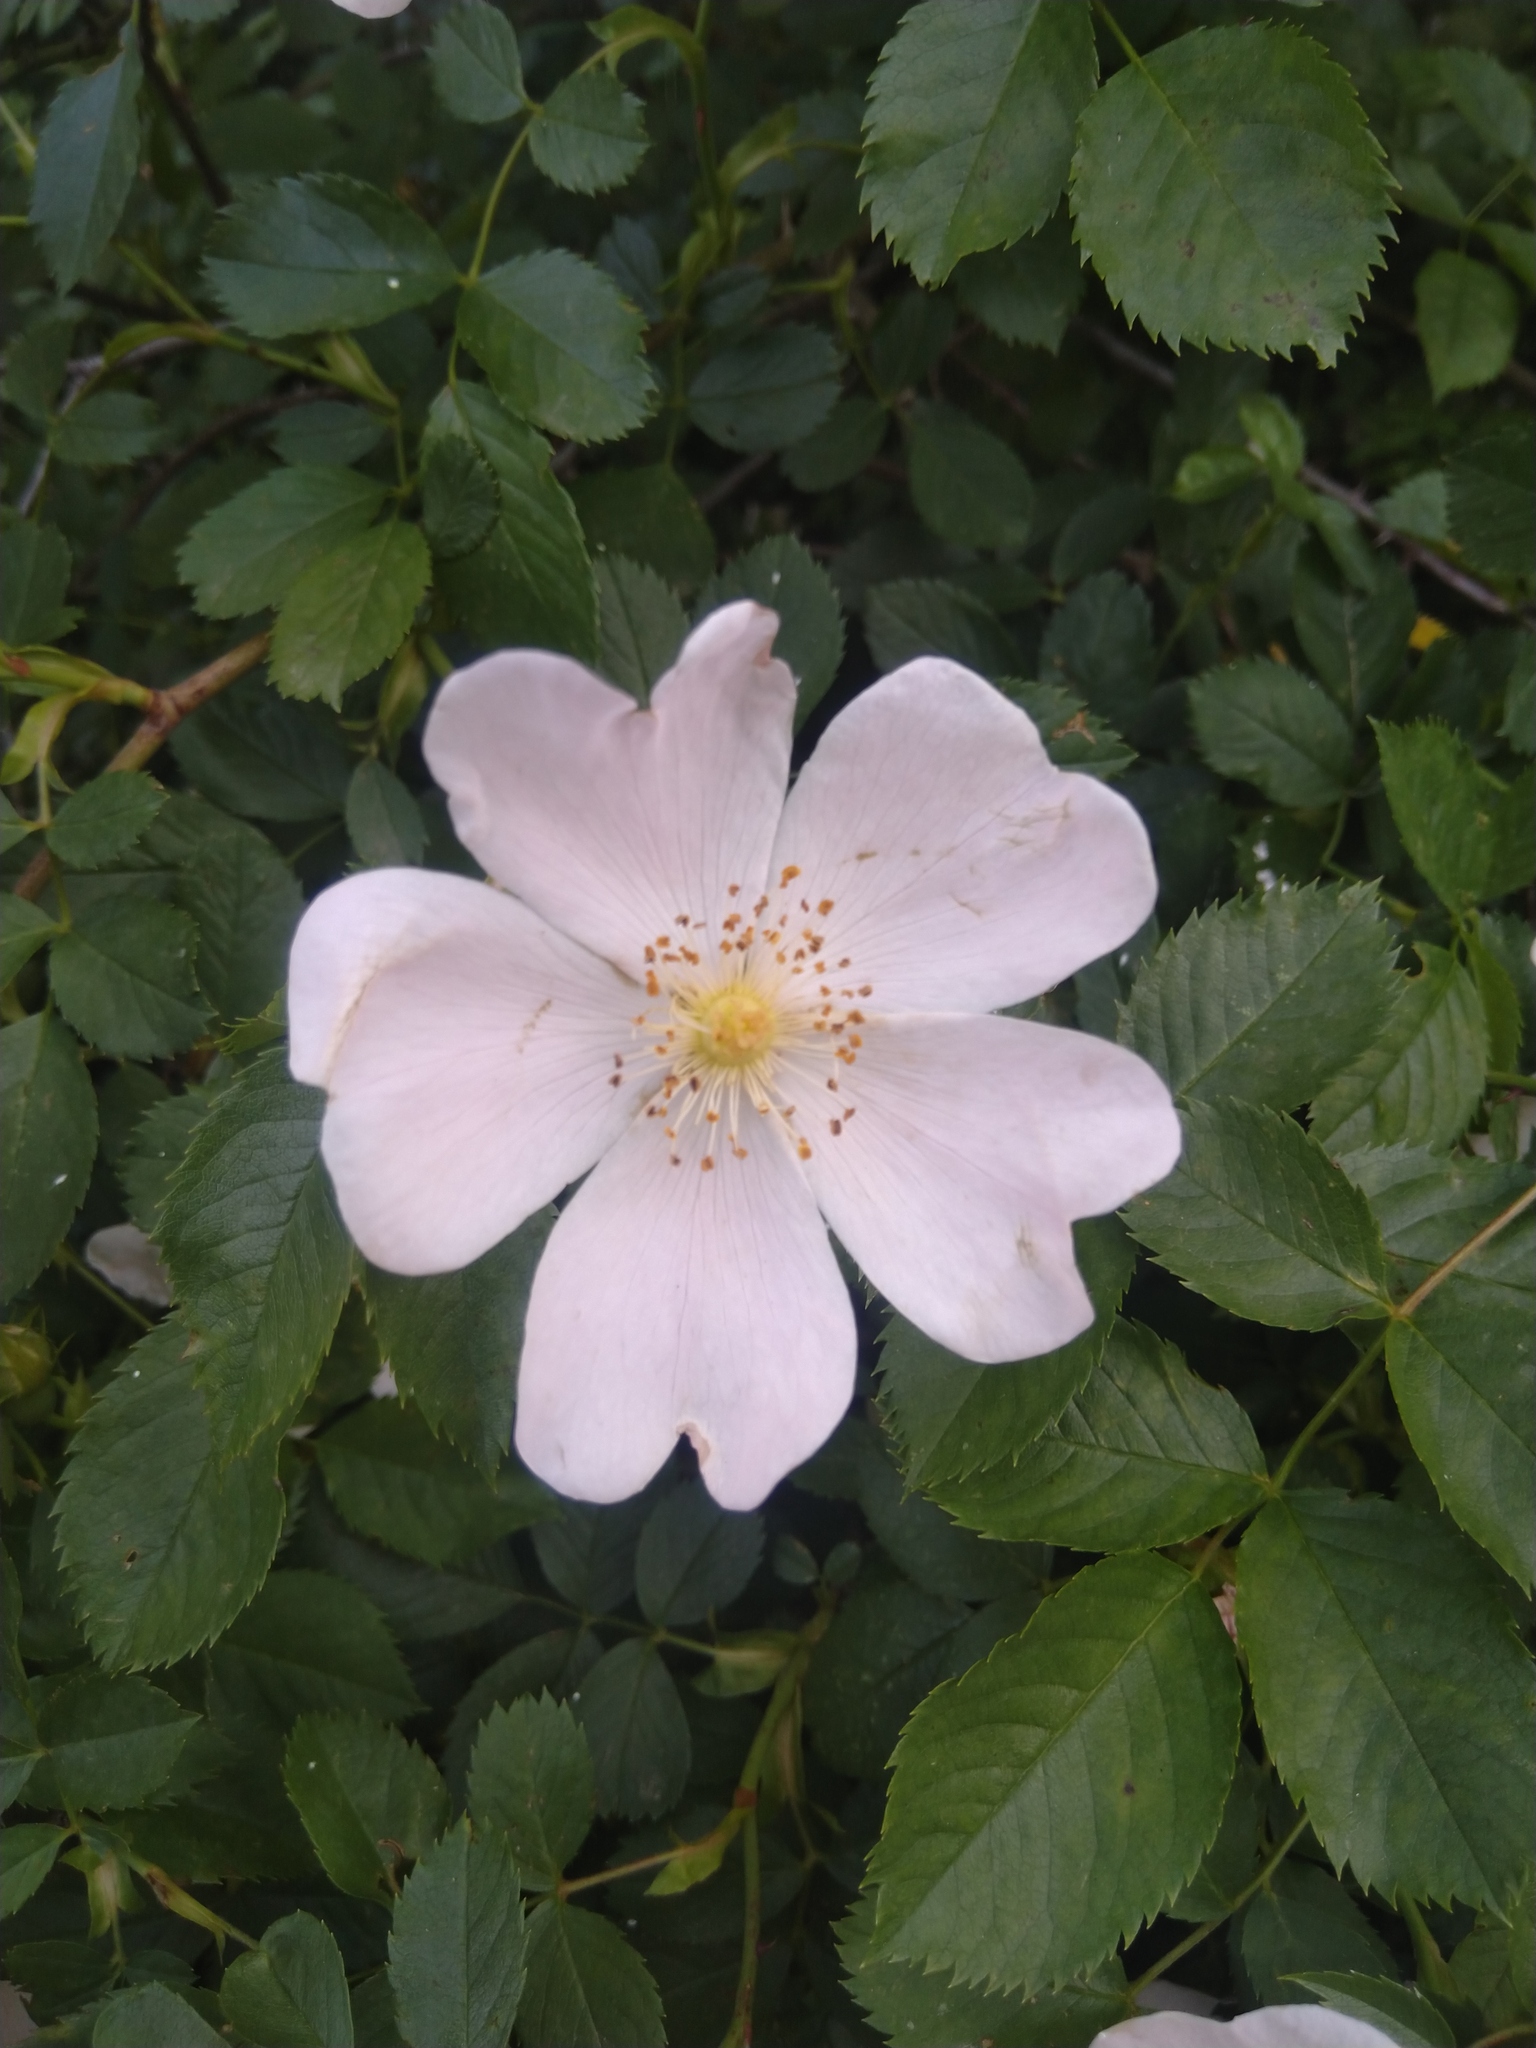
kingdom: Plantae
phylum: Tracheophyta
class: Magnoliopsida
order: Rosales
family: Rosaceae
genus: Rosa
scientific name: Rosa canina
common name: Dog rose
